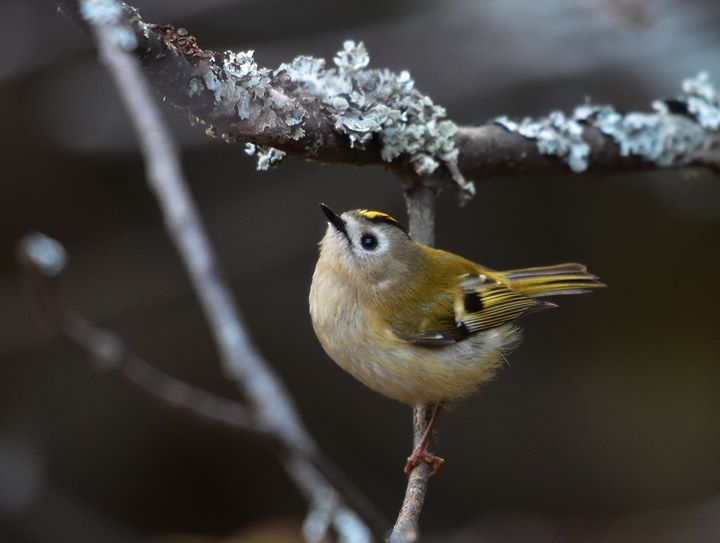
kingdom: Animalia
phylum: Chordata
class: Aves
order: Passeriformes
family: Regulidae
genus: Regulus
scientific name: Regulus regulus
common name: Goldcrest
